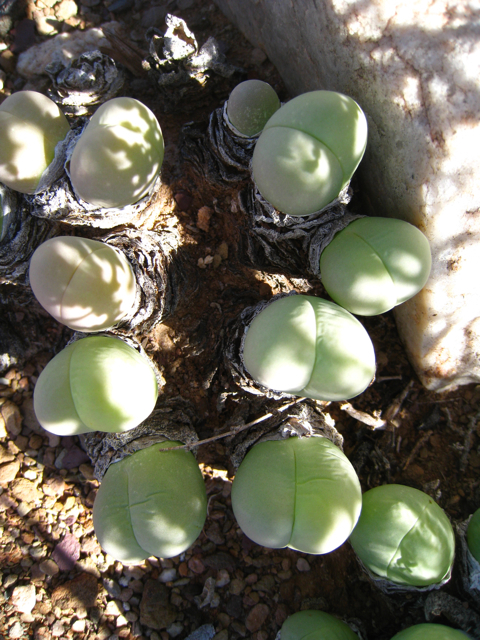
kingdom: Plantae
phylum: Tracheophyta
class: Magnoliopsida
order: Caryophyllales
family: Aizoaceae
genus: Gibbaeum
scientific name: Gibbaeum heathii
